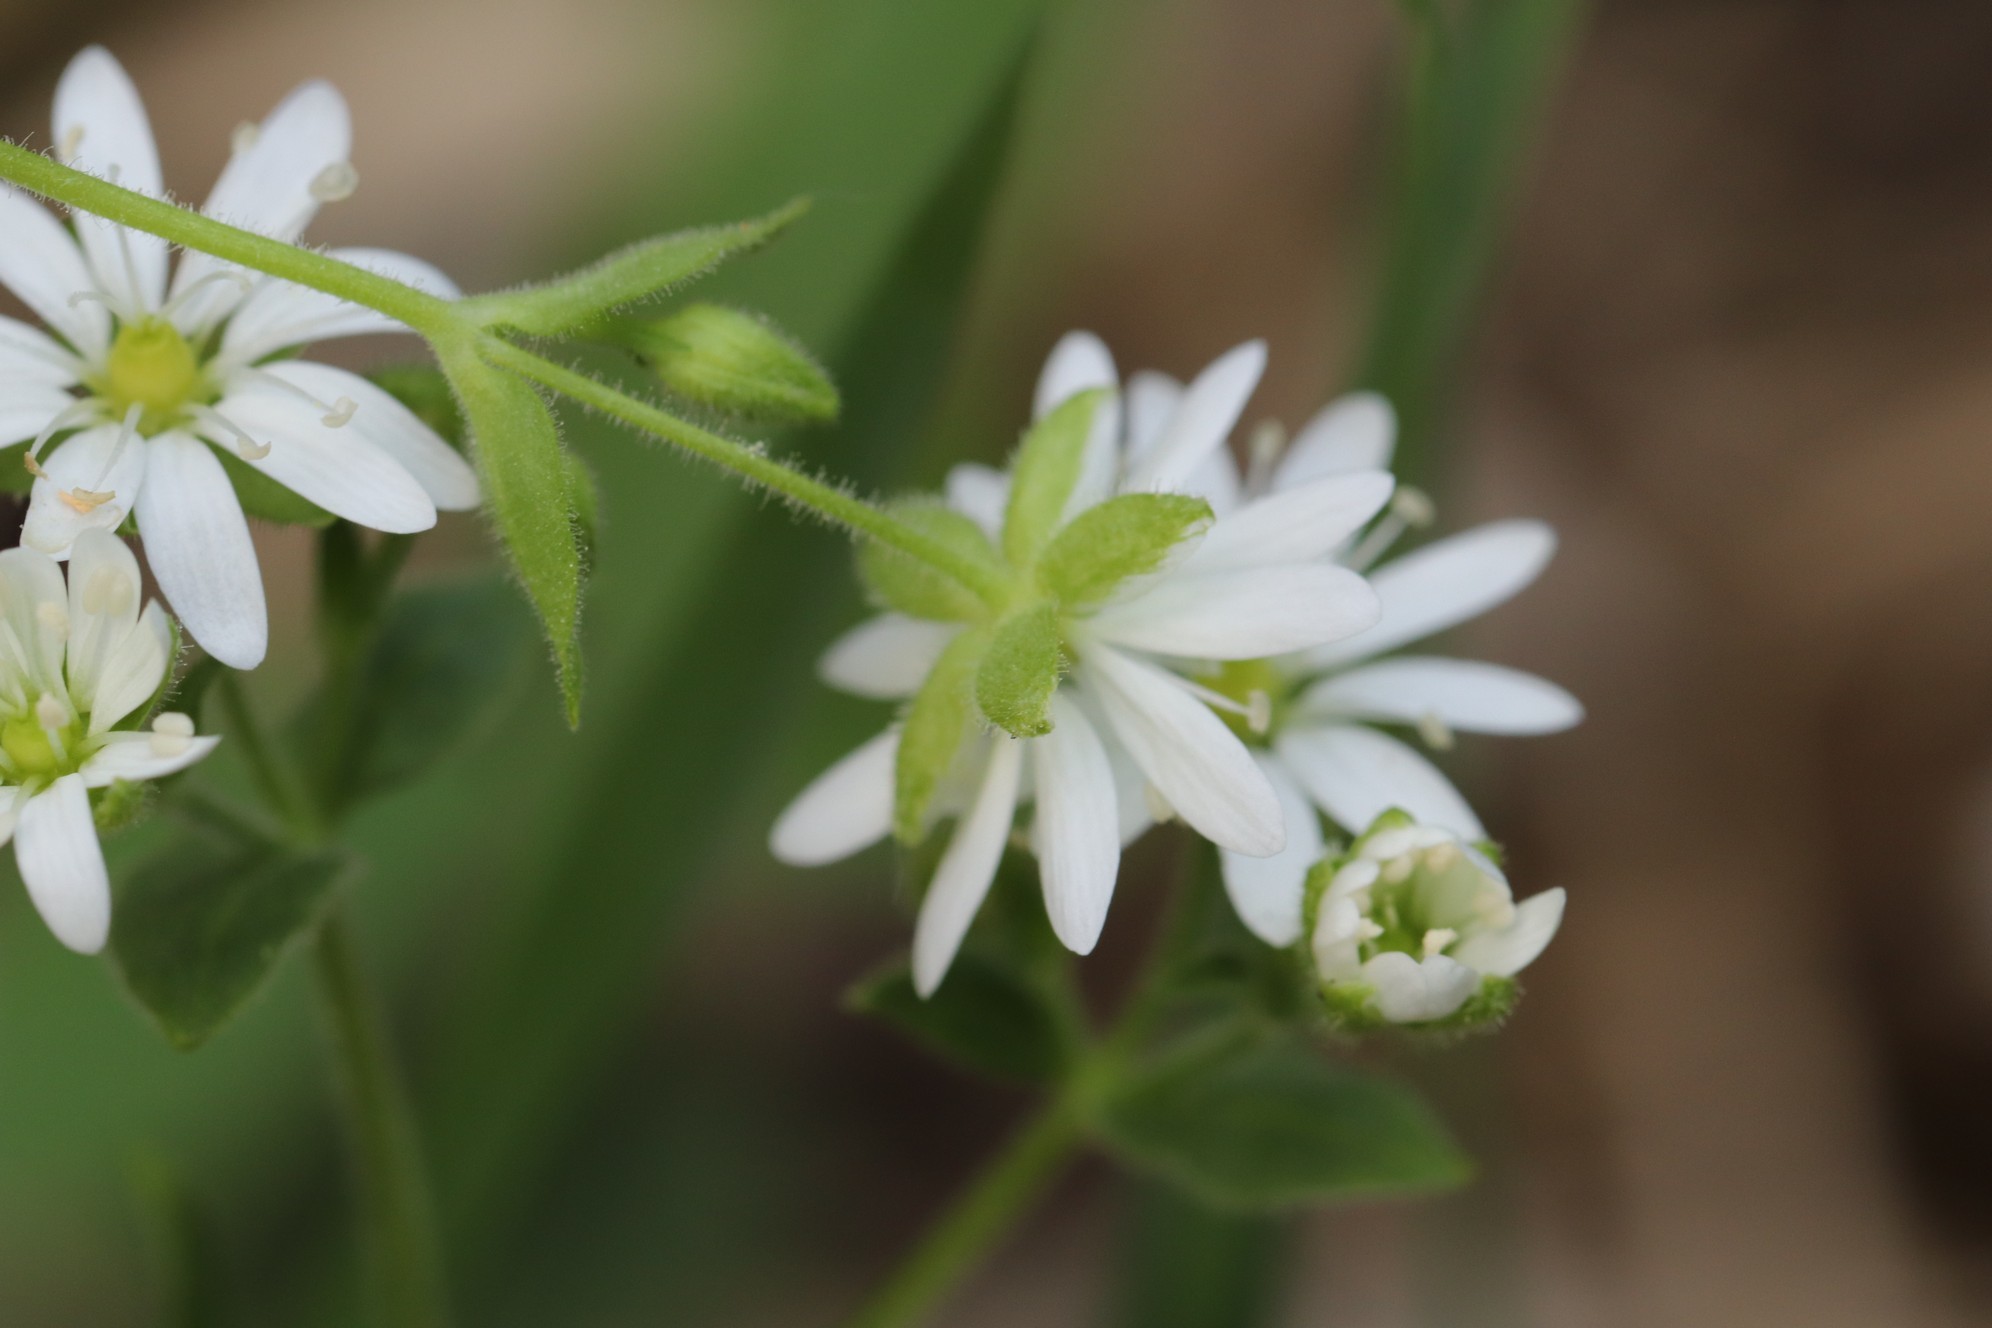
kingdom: Plantae
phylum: Tracheophyta
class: Magnoliopsida
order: Caryophyllales
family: Caryophyllaceae
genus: Stellaria
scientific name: Stellaria bungeana
